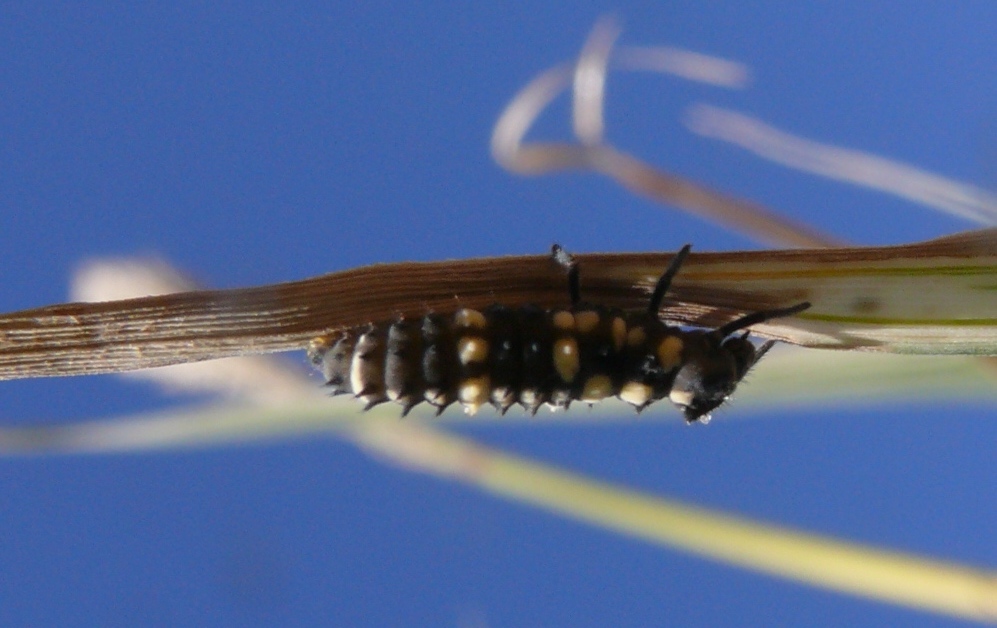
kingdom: Animalia
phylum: Arthropoda
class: Insecta
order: Coleoptera
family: Coccinellidae
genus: Hippodamia
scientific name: Hippodamia variegata
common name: Ladybird beetle
